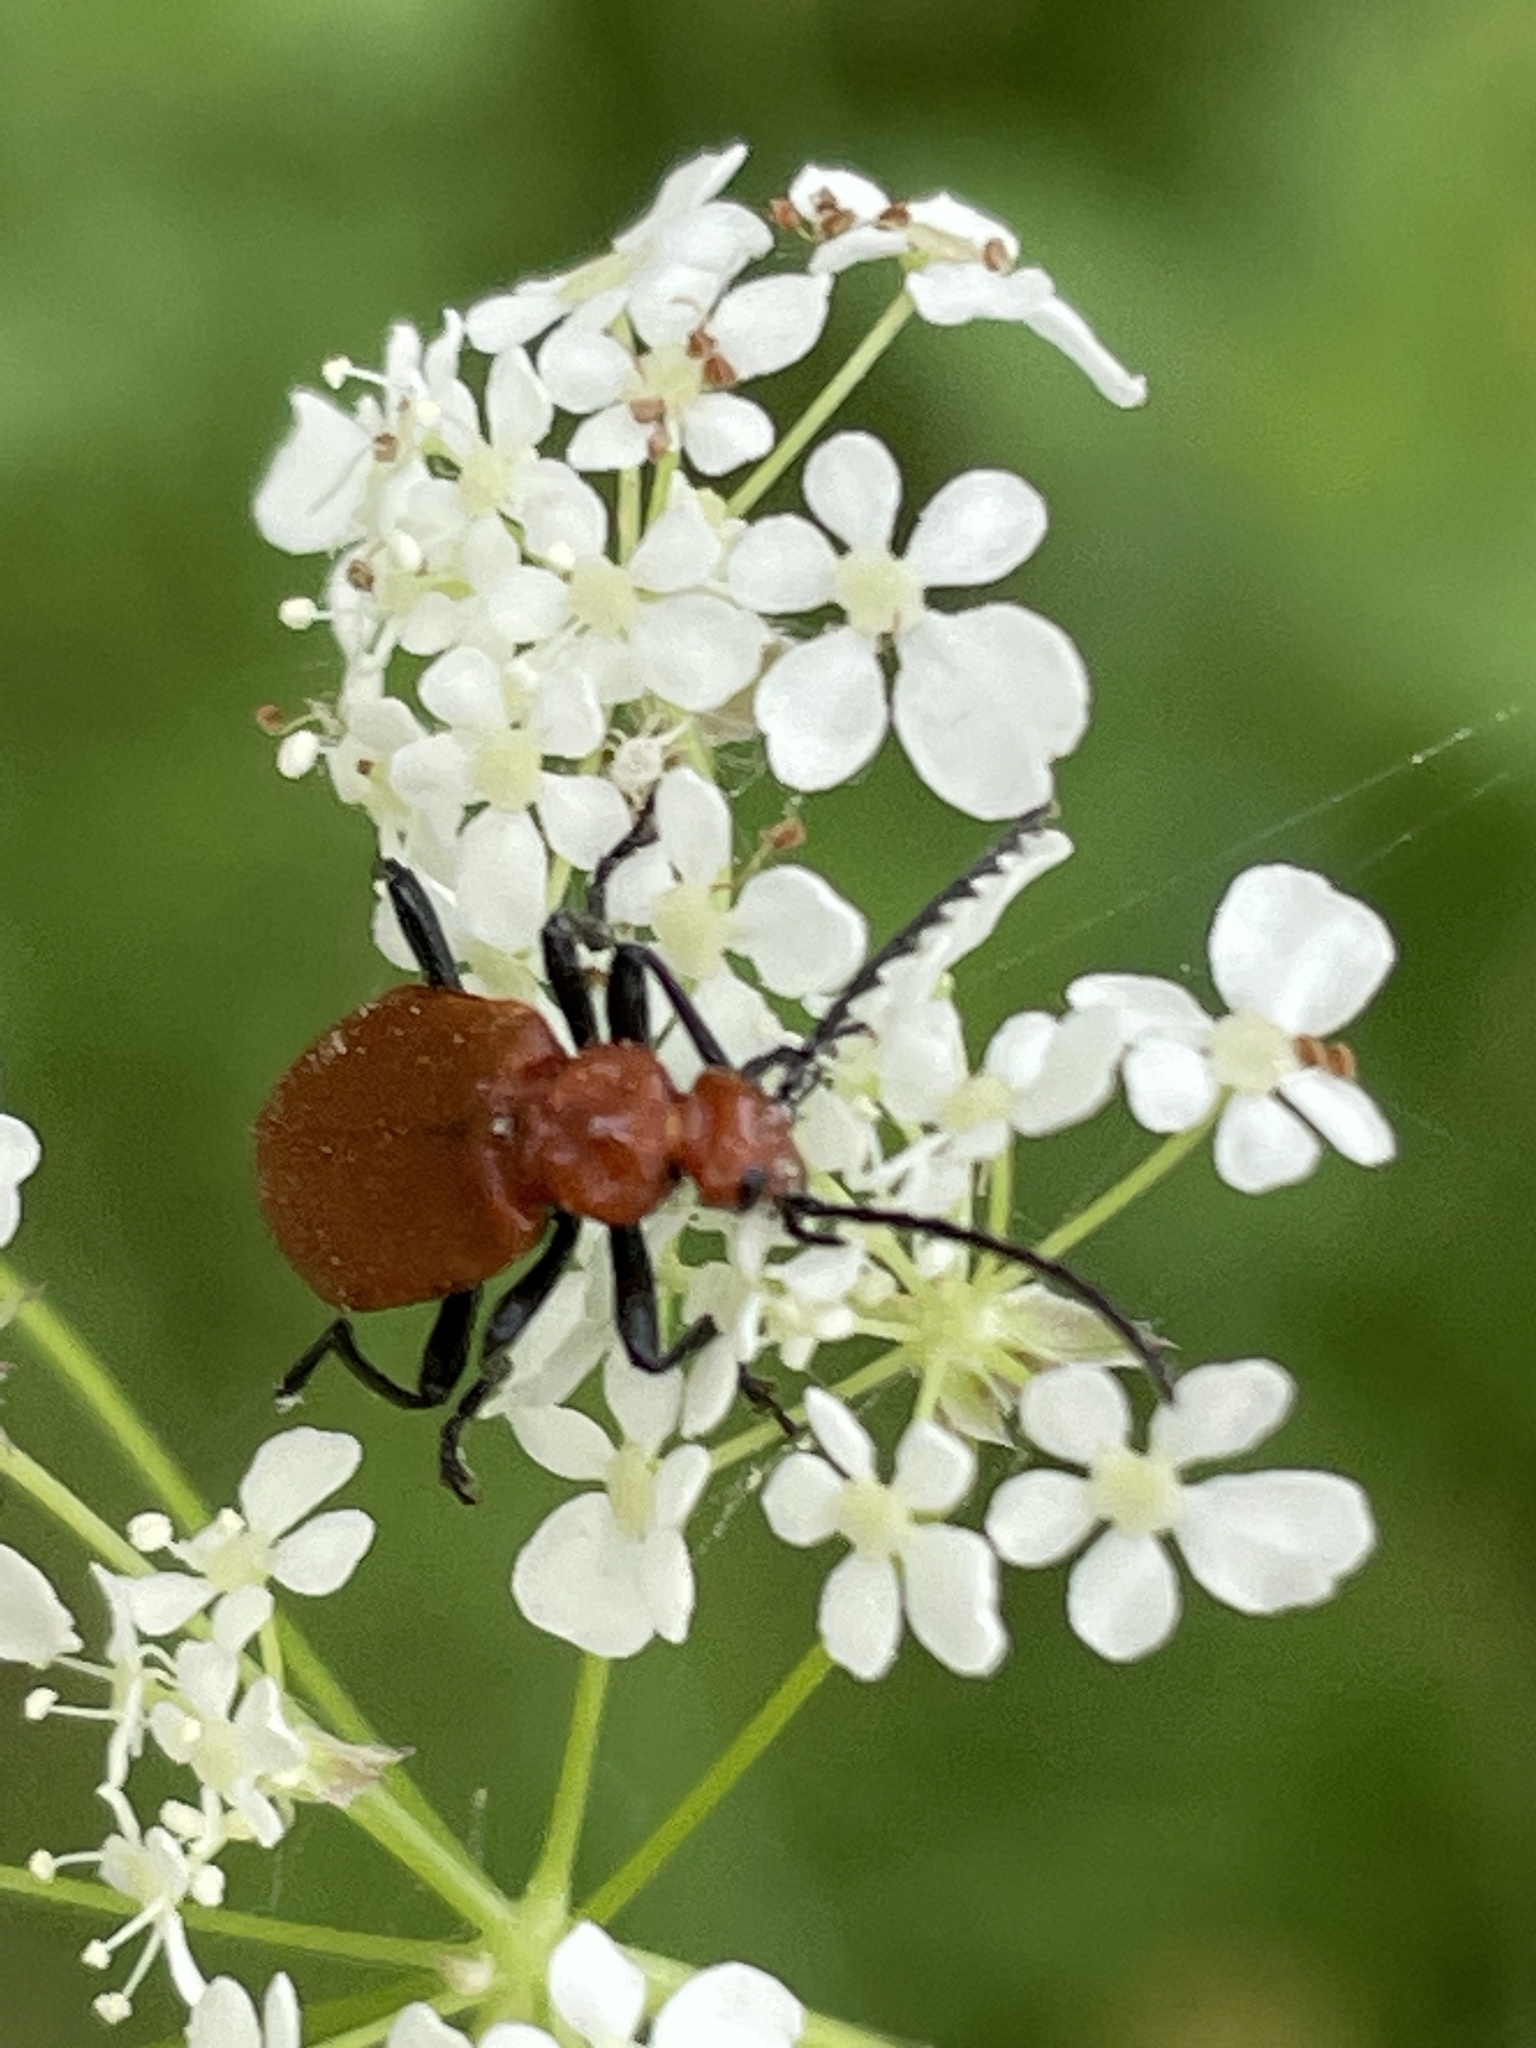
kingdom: Animalia
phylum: Arthropoda
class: Insecta
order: Coleoptera
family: Pyrochroidae
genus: Pyrochroa
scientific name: Pyrochroa serraticornis
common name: Red-headed cardinal beetle
